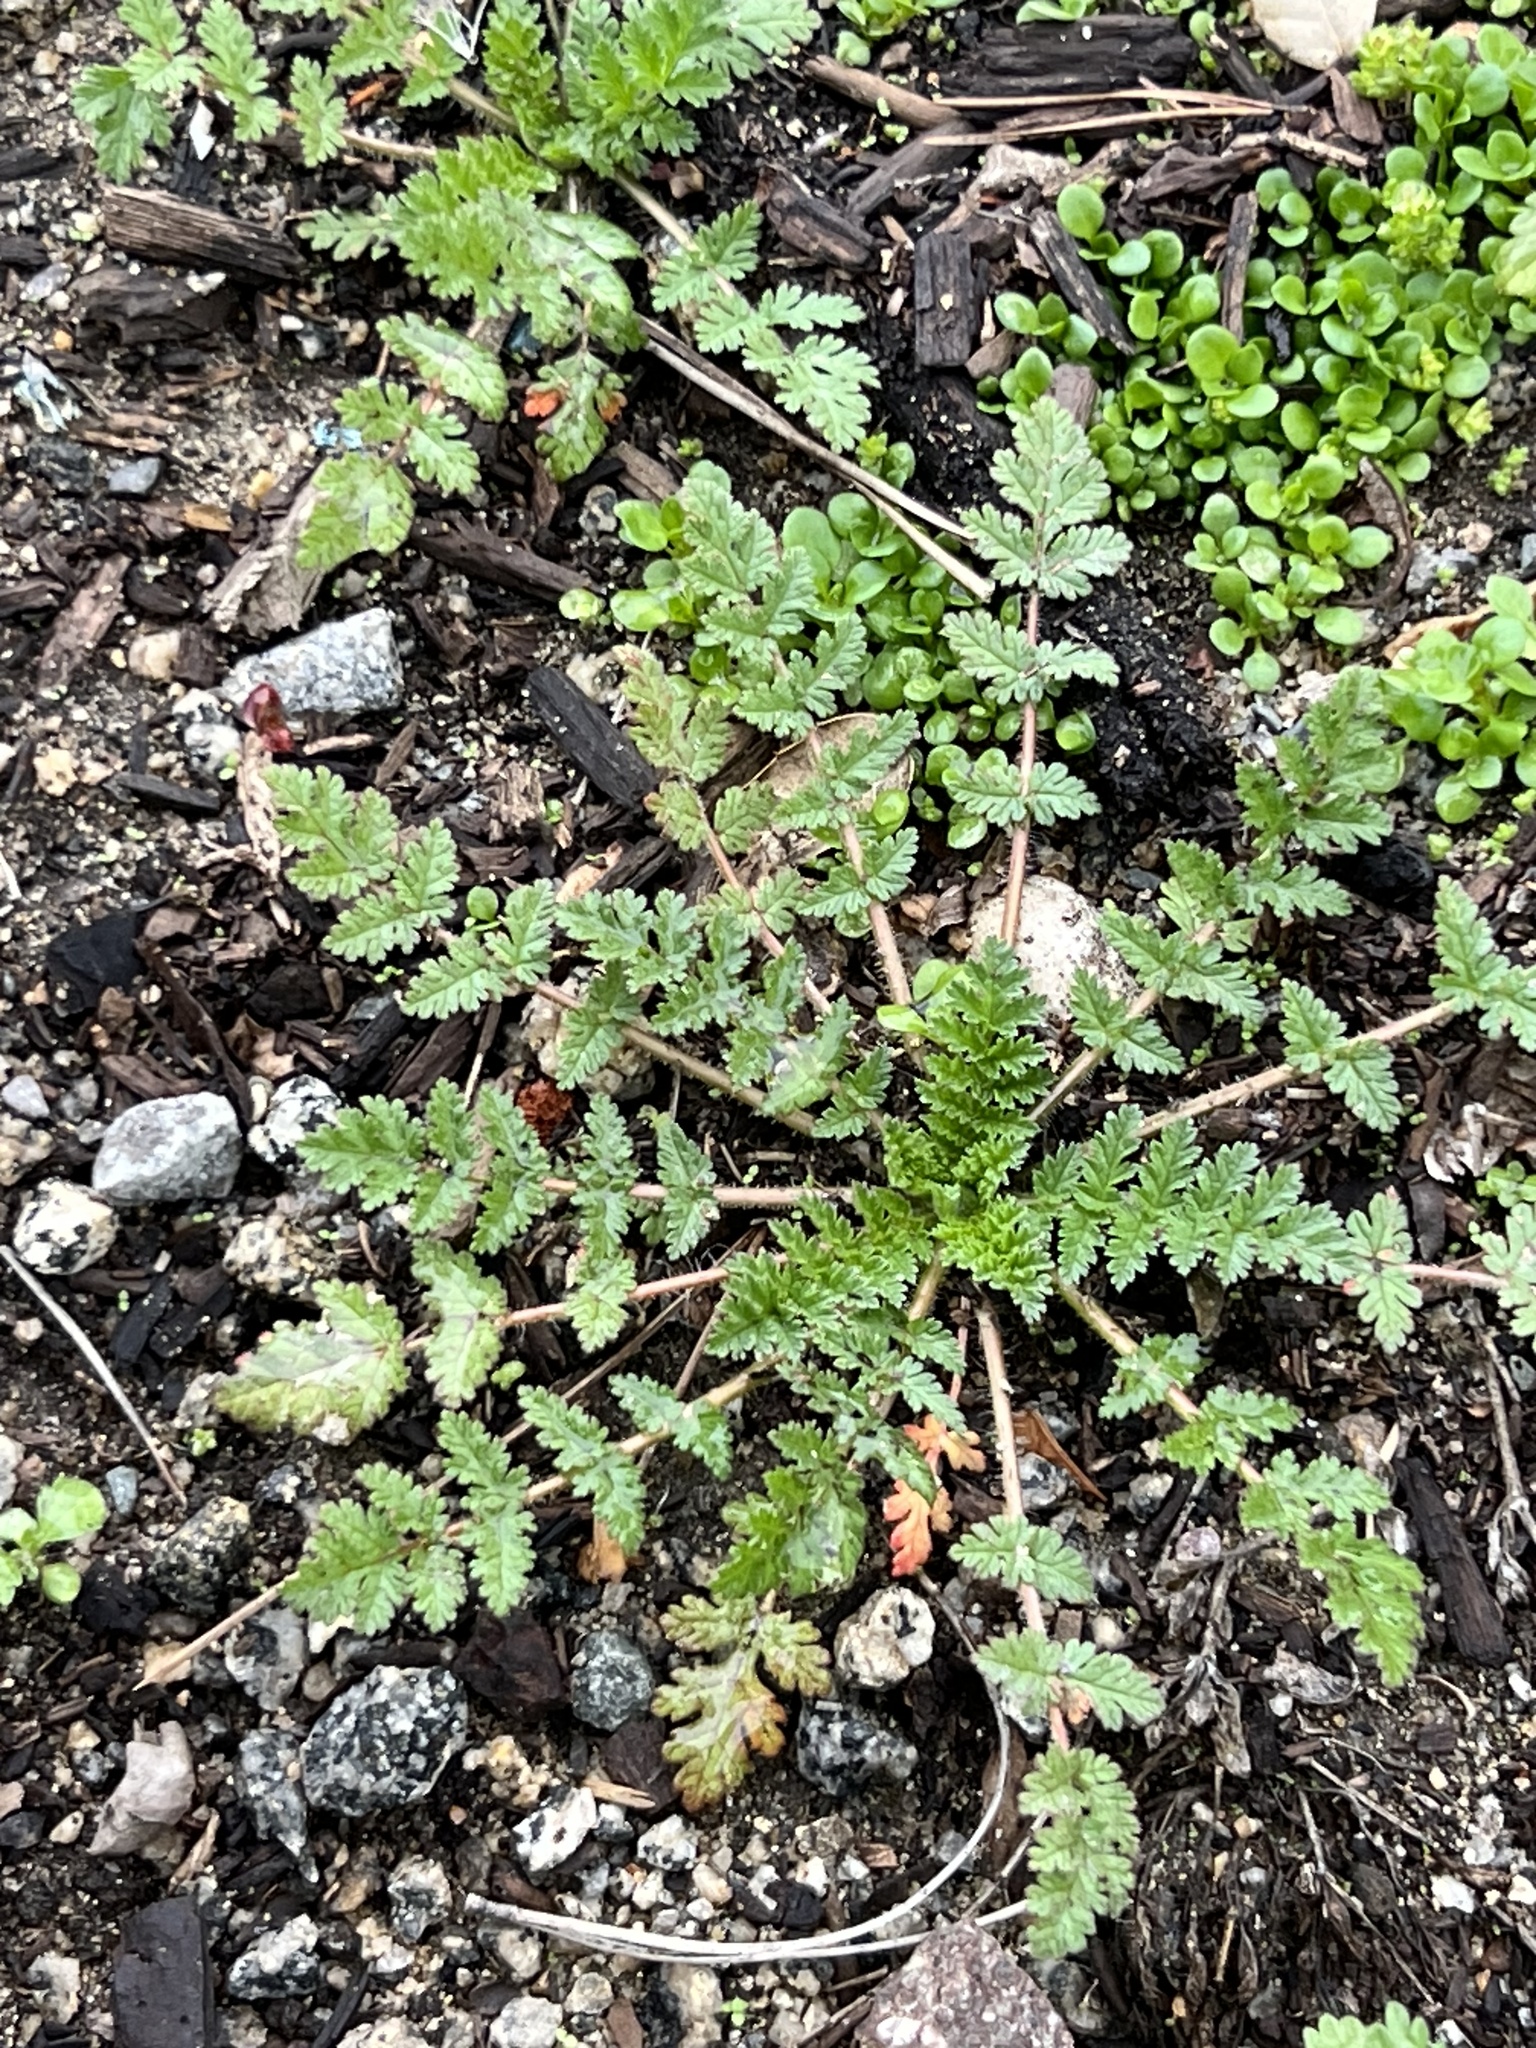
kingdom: Plantae
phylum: Tracheophyta
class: Magnoliopsida
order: Geraniales
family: Geraniaceae
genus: Erodium
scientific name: Erodium cicutarium
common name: Common stork's-bill
